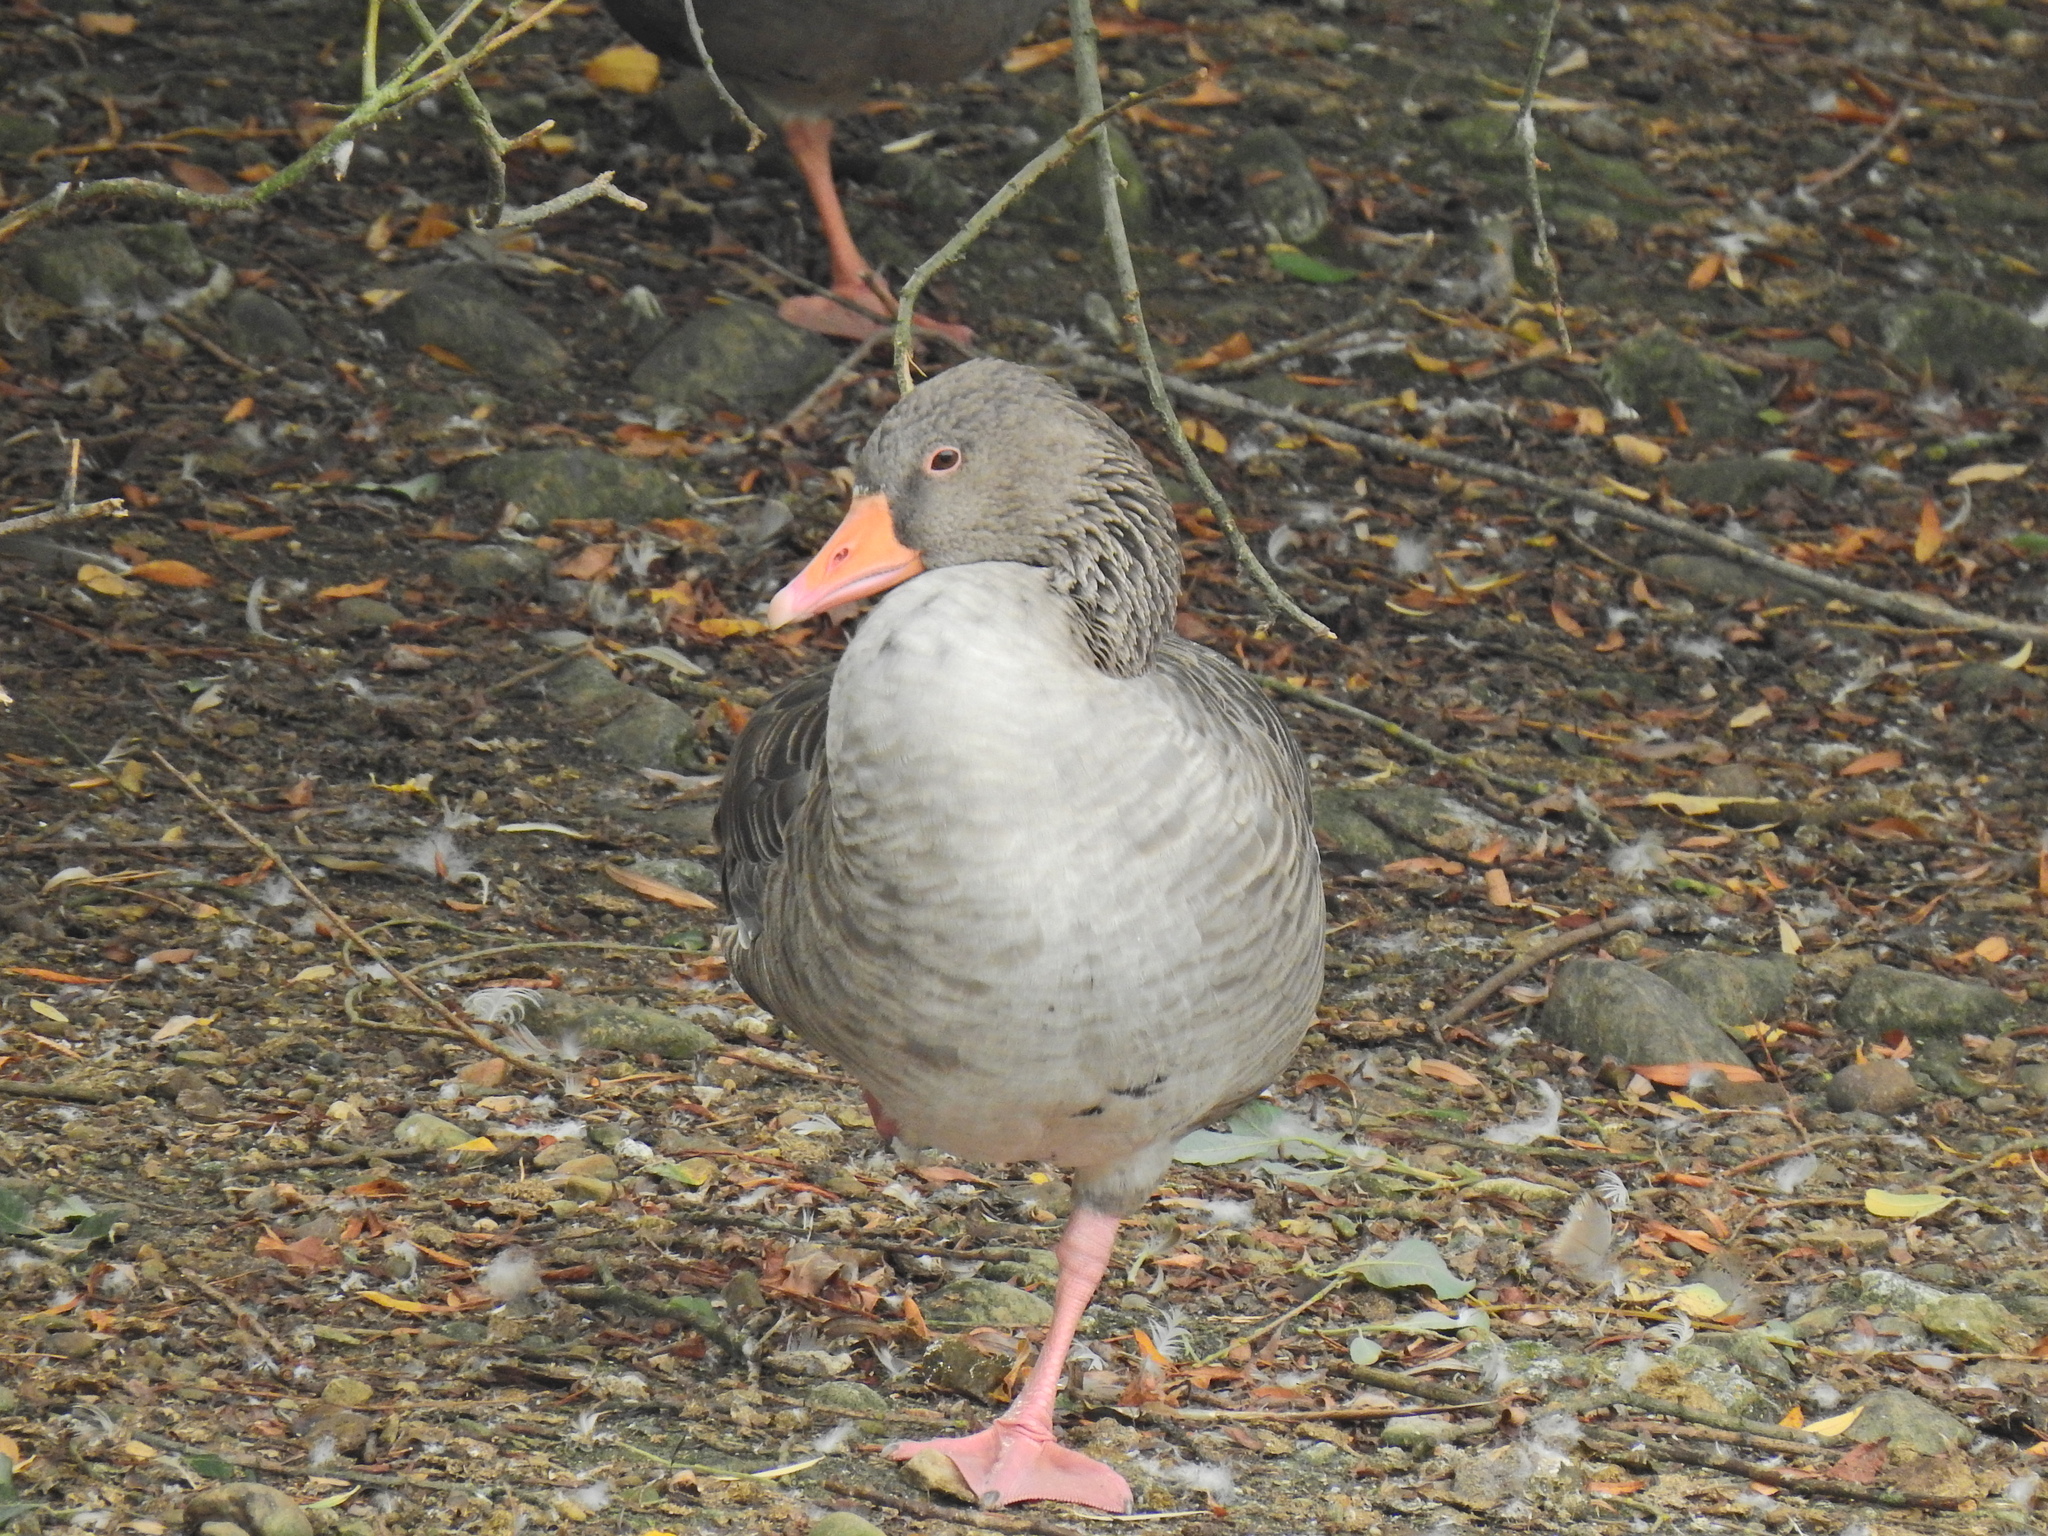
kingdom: Animalia
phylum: Chordata
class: Aves
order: Anseriformes
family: Anatidae
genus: Anser
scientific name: Anser anser
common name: Greylag goose
